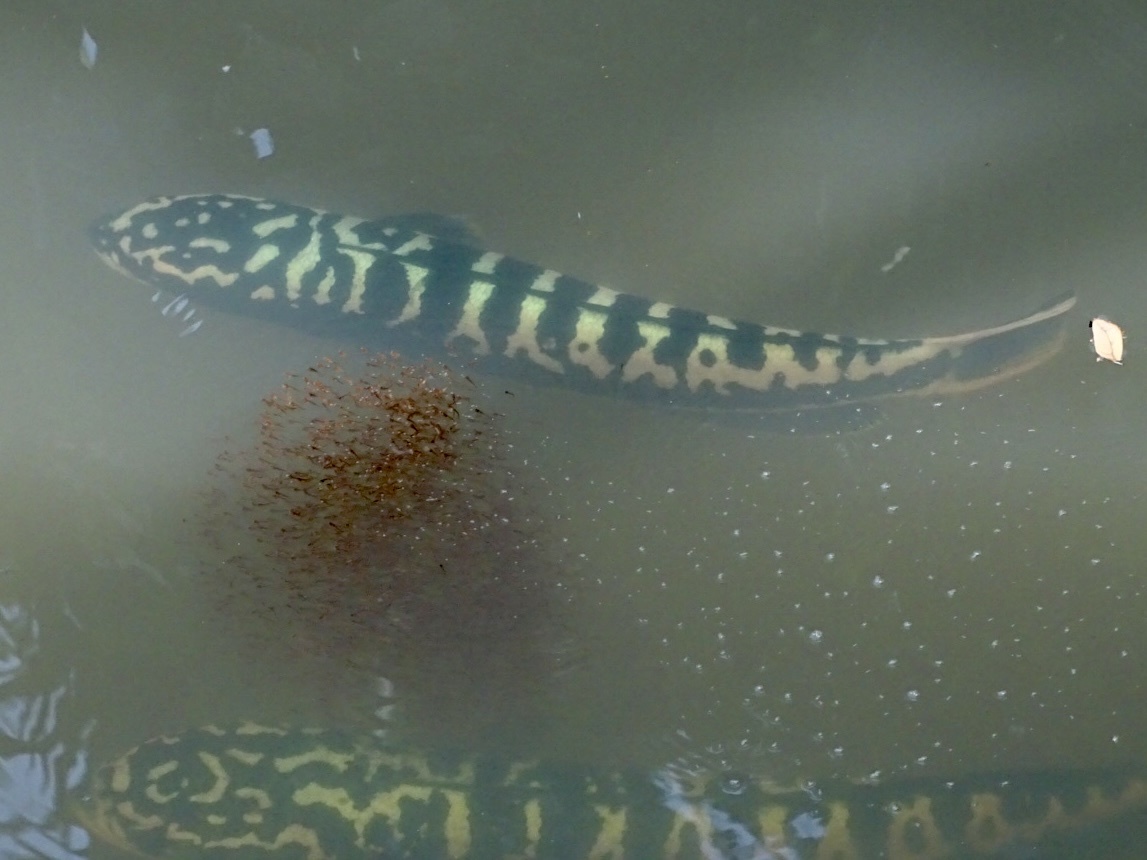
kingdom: Animalia
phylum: Chordata
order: Perciformes
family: Channidae
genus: Channa
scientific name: Channa micropeltes
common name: Giant snakehead
